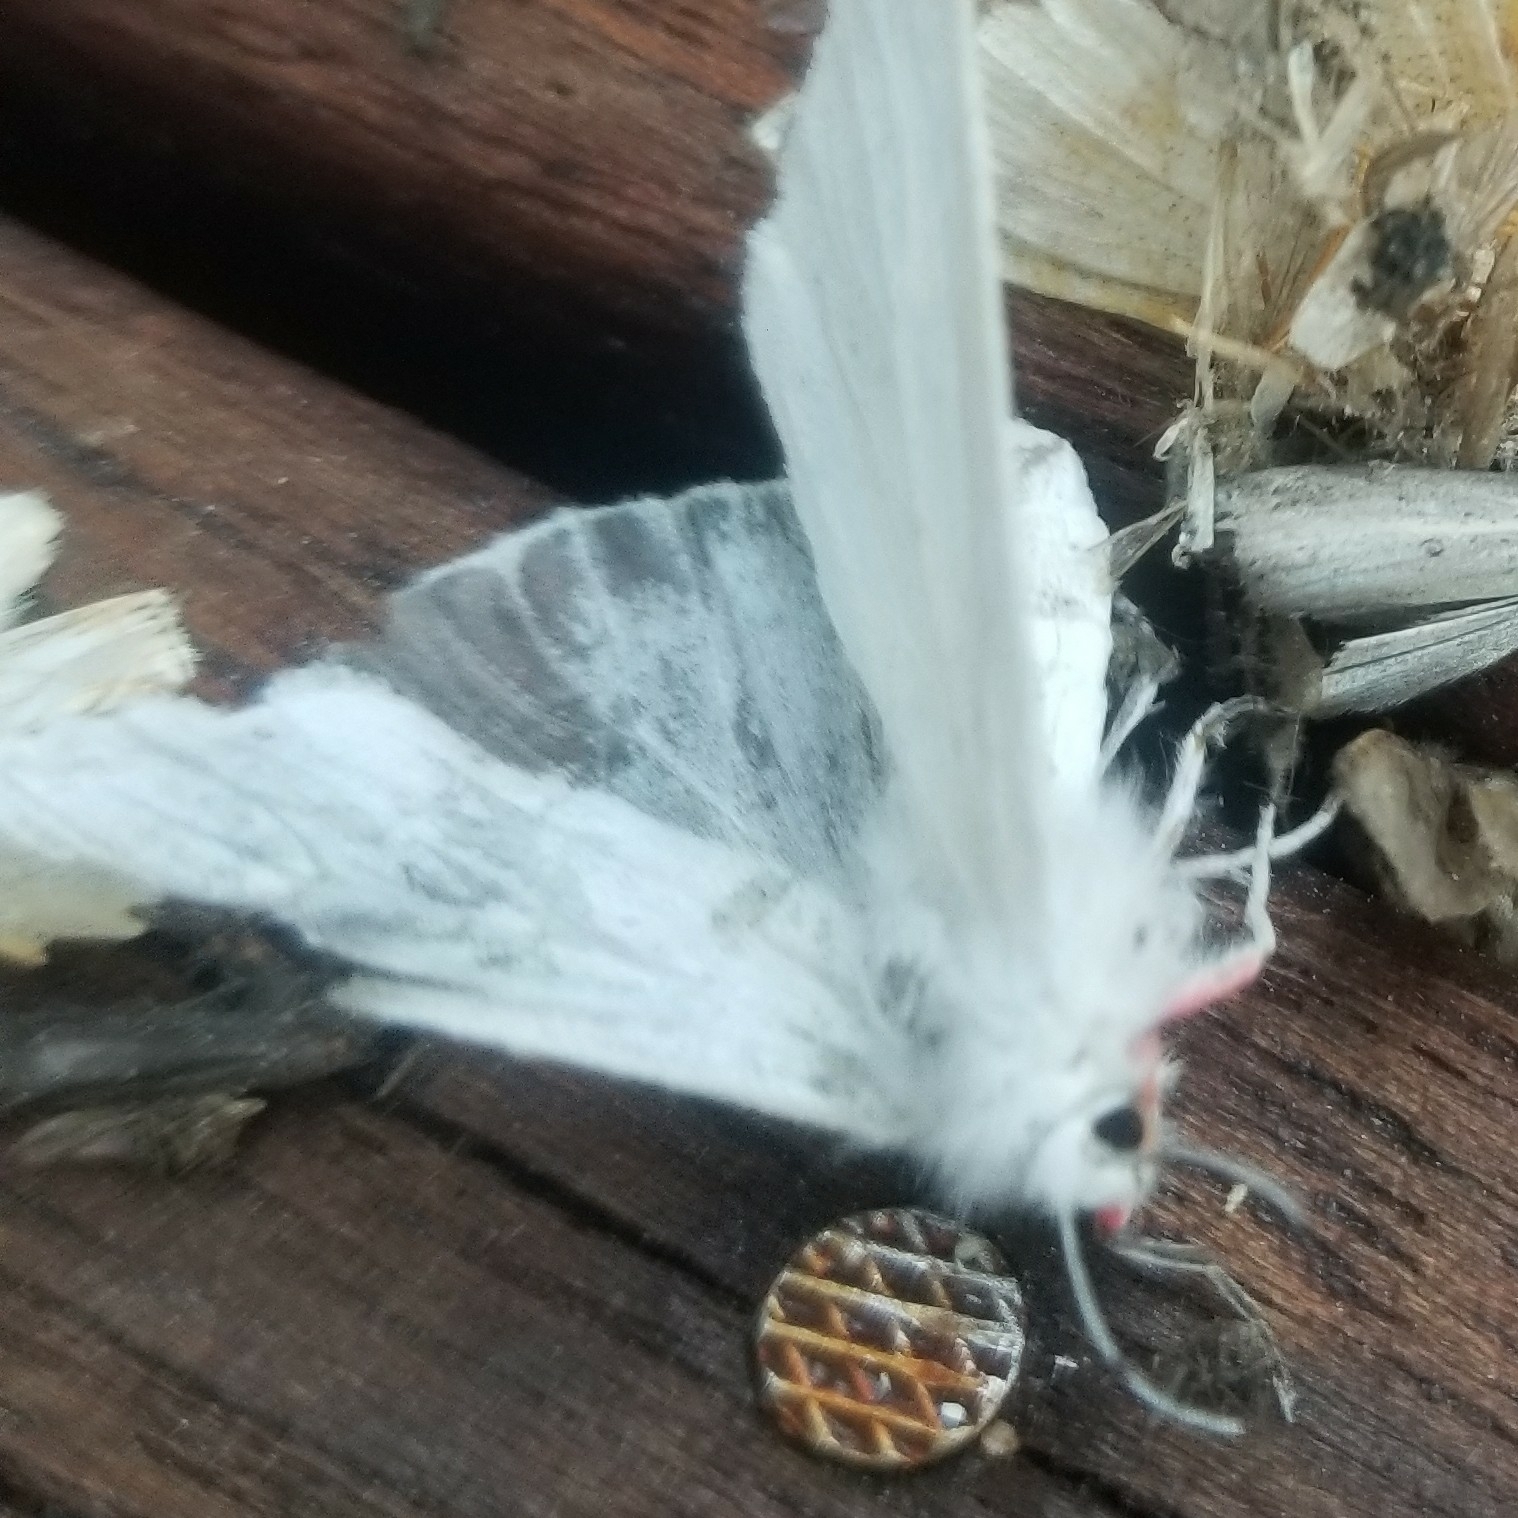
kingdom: Animalia
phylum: Arthropoda
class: Insecta
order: Lepidoptera
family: Erebidae
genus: Spilosoma
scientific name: Spilosoma latipennis
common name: Pink-legged tiger moth
